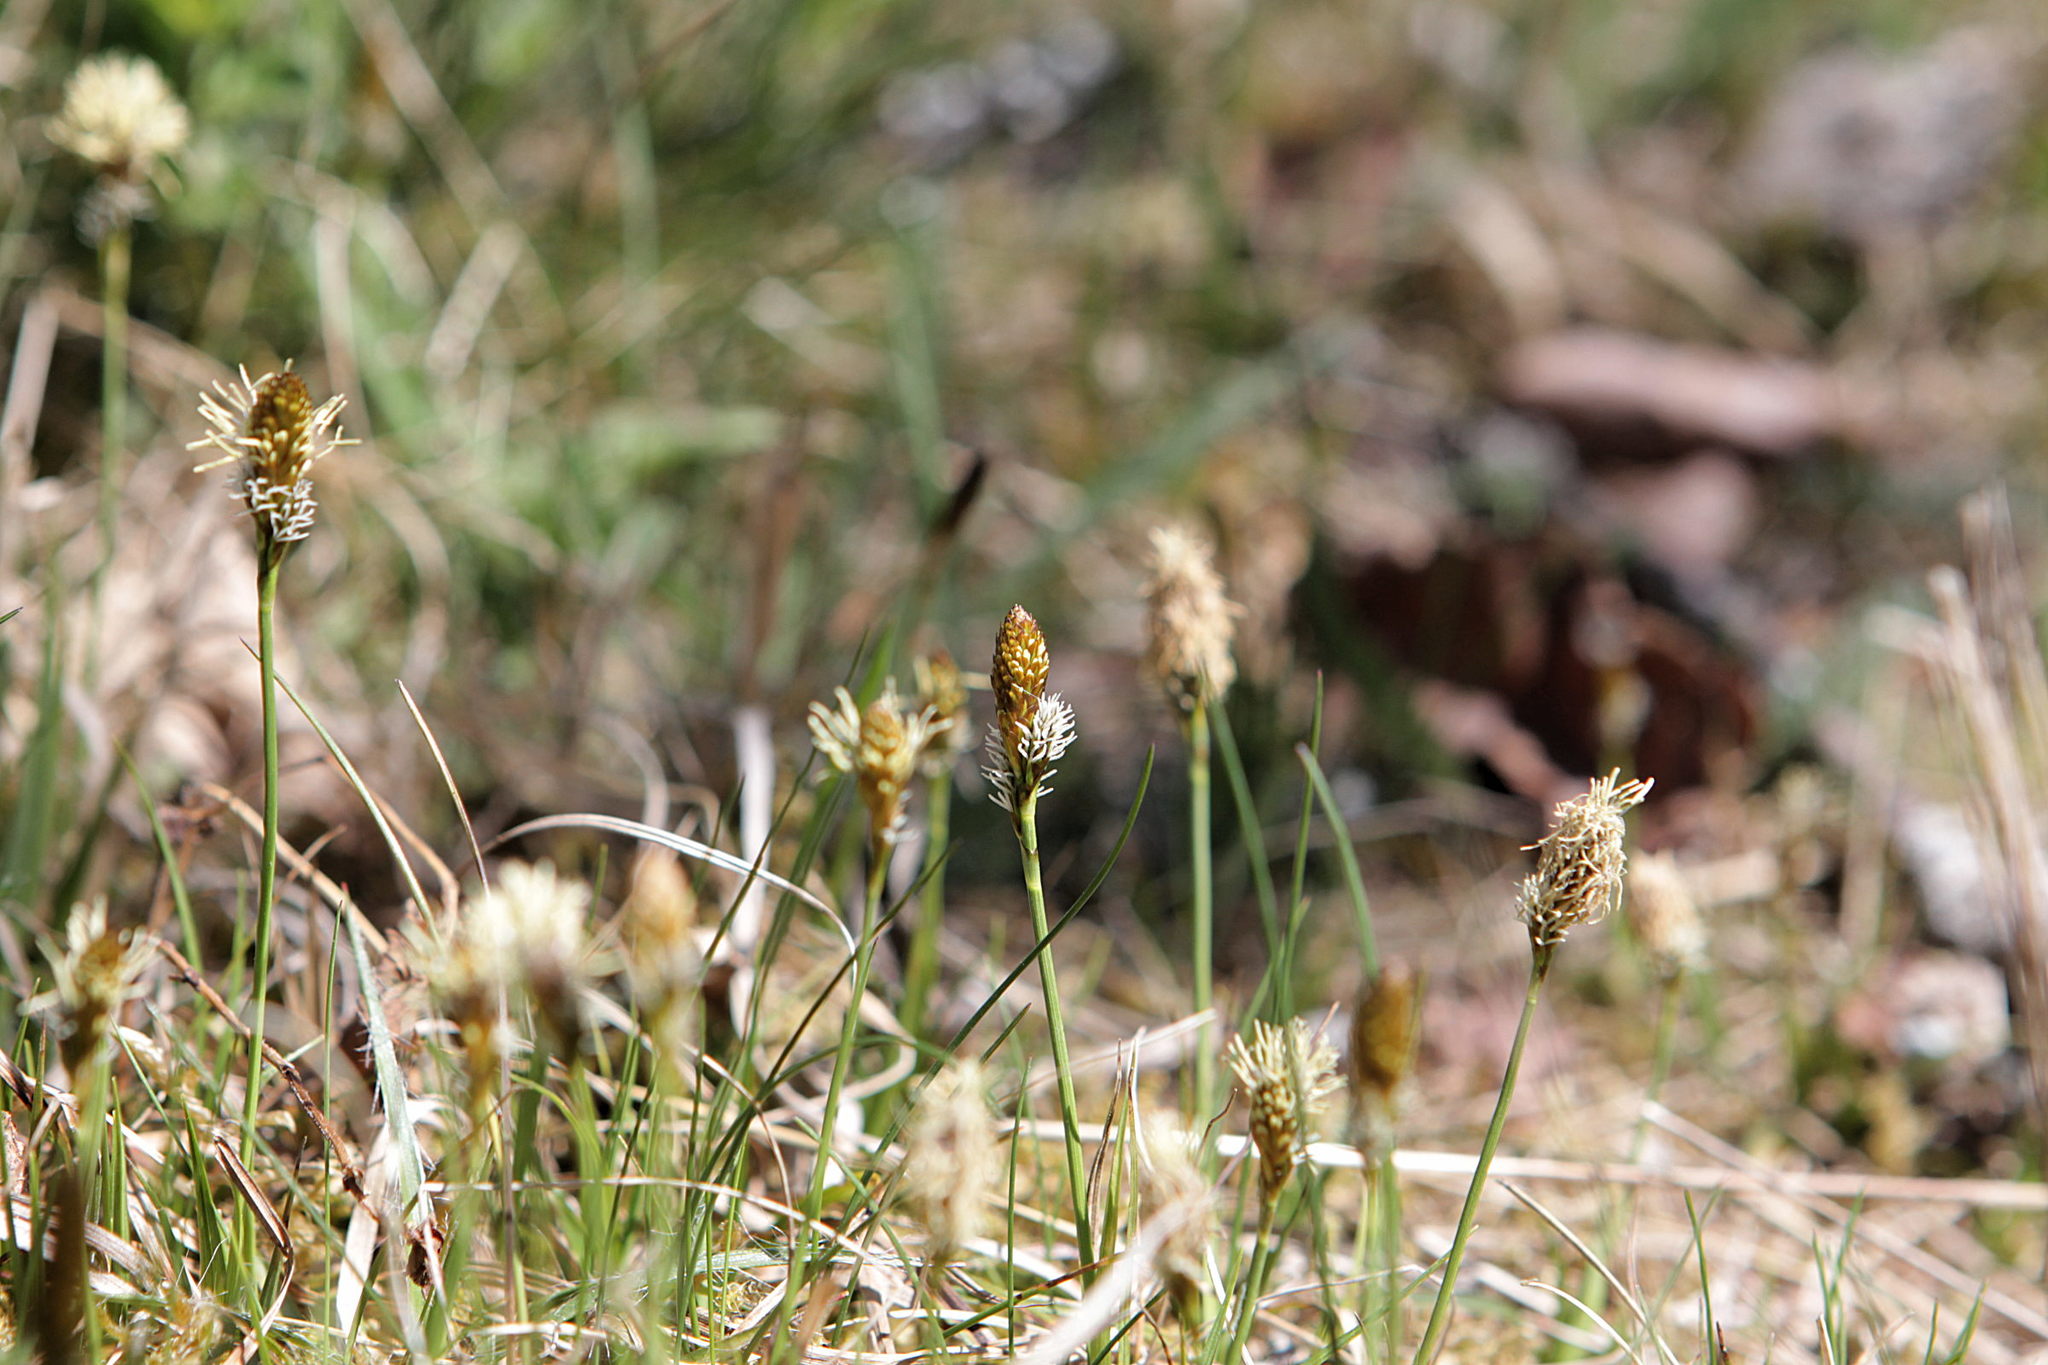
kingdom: Plantae
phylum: Tracheophyta
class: Liliopsida
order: Poales
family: Cyperaceae
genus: Carex
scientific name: Carex caryophyllea
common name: Spring sedge
